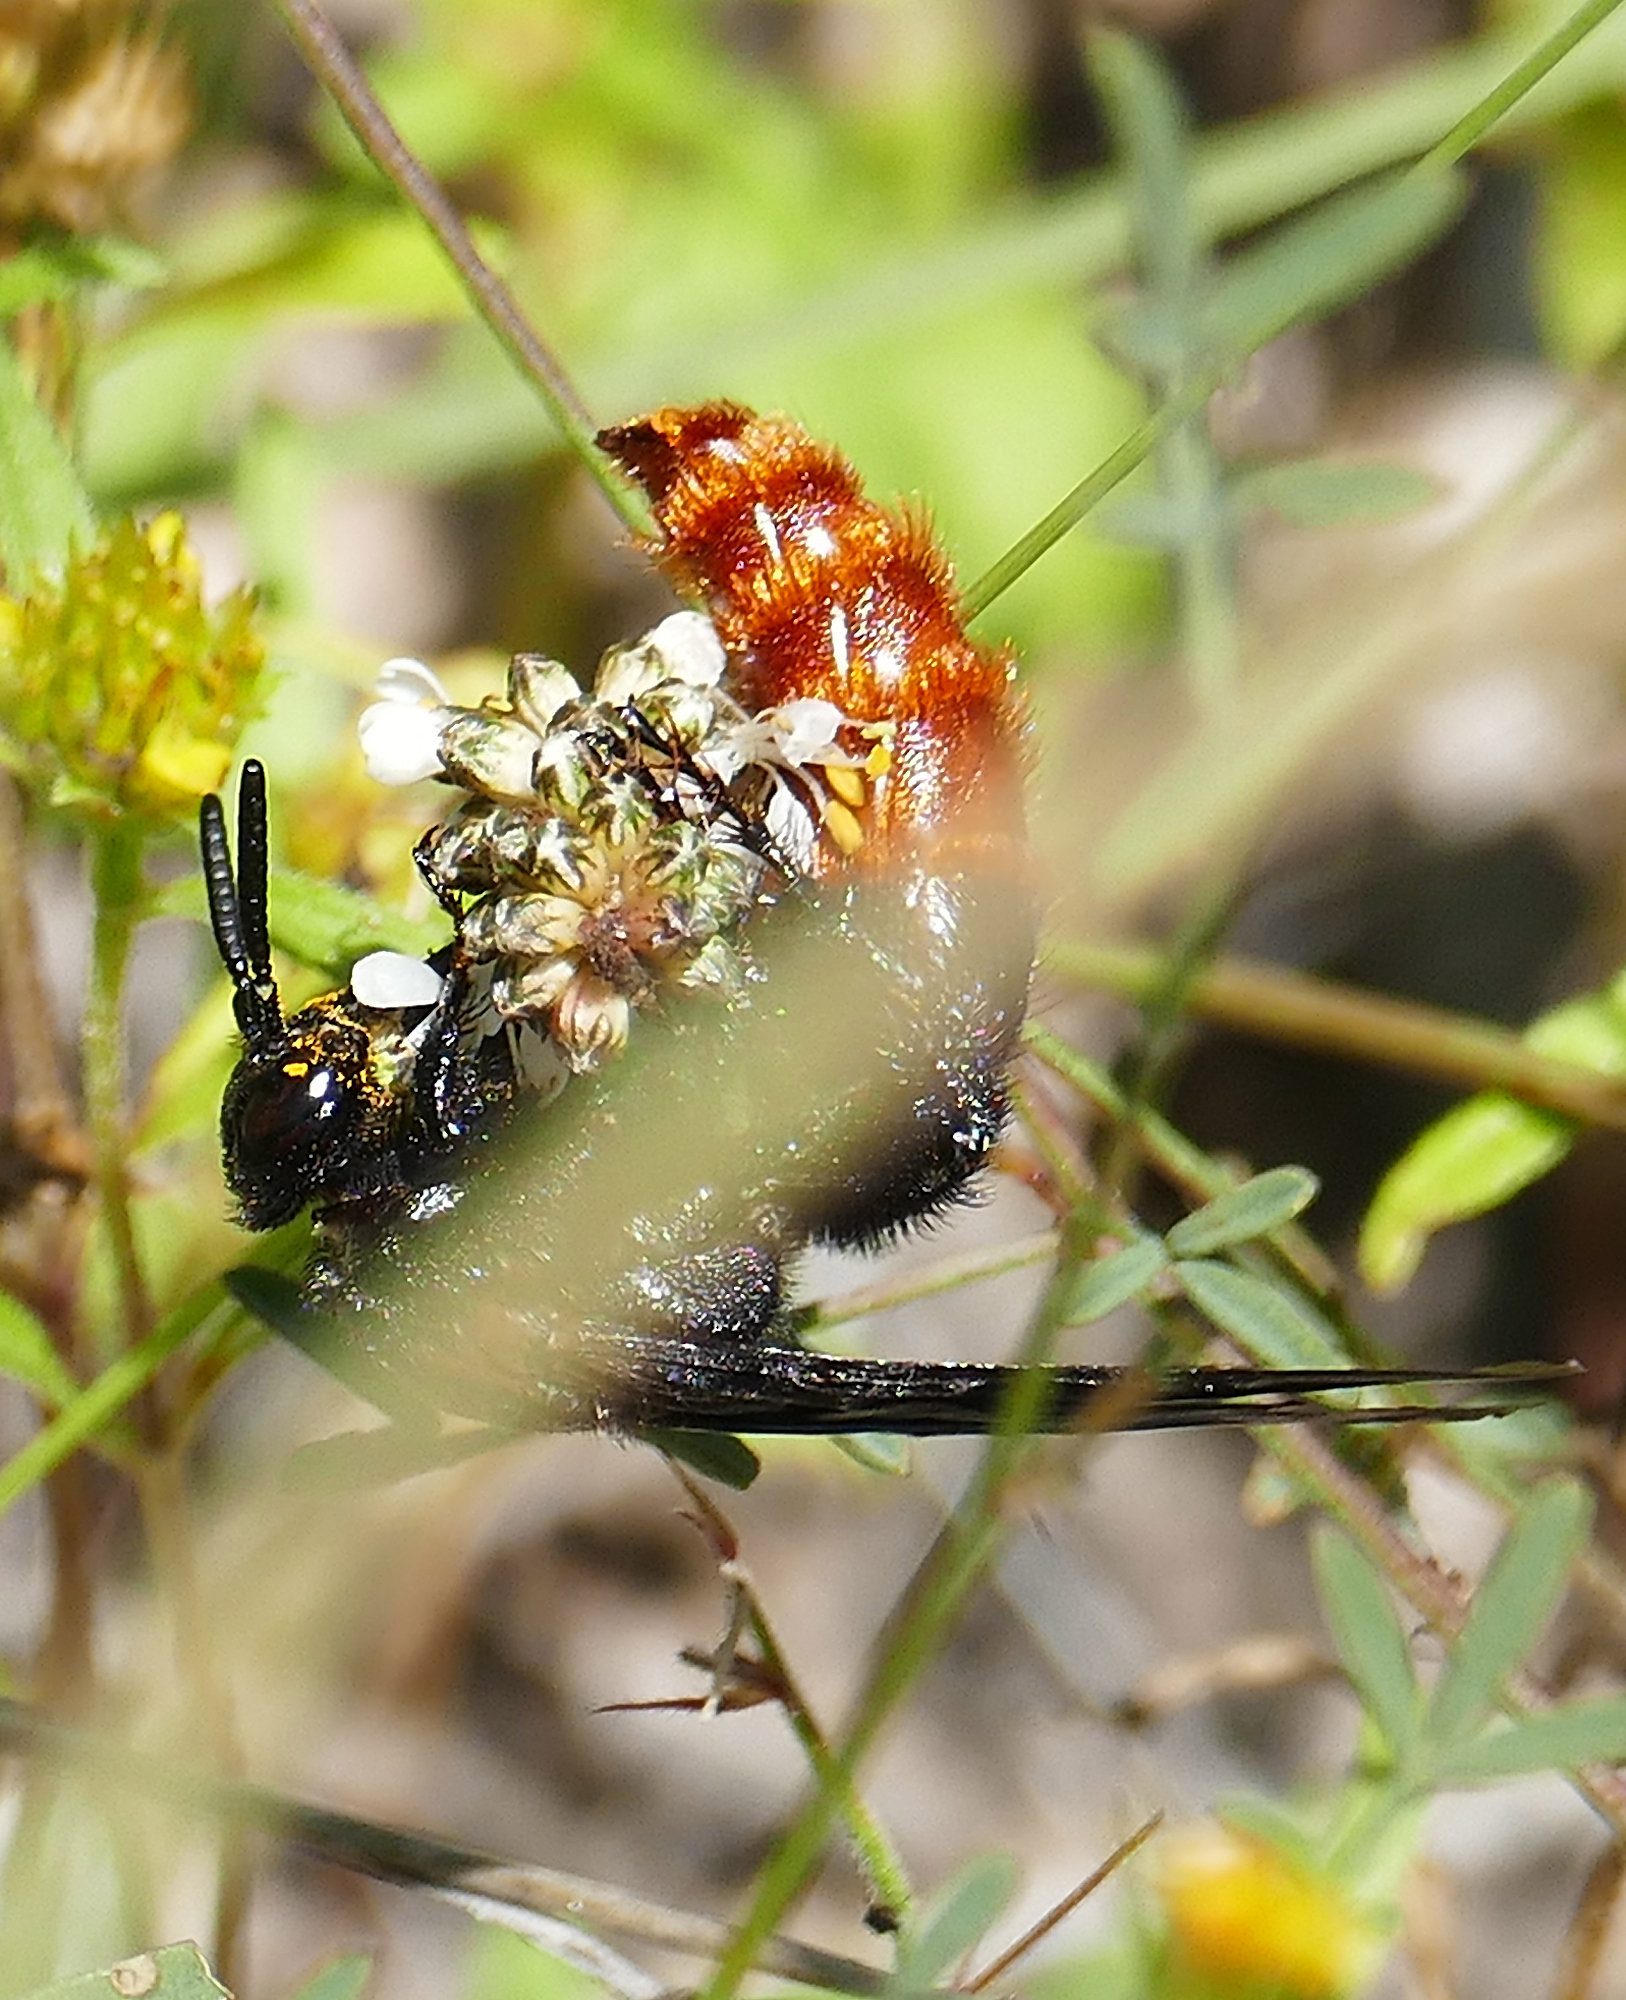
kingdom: Animalia
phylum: Arthropoda
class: Insecta
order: Hymenoptera
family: Scoliidae
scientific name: Scoliidae
